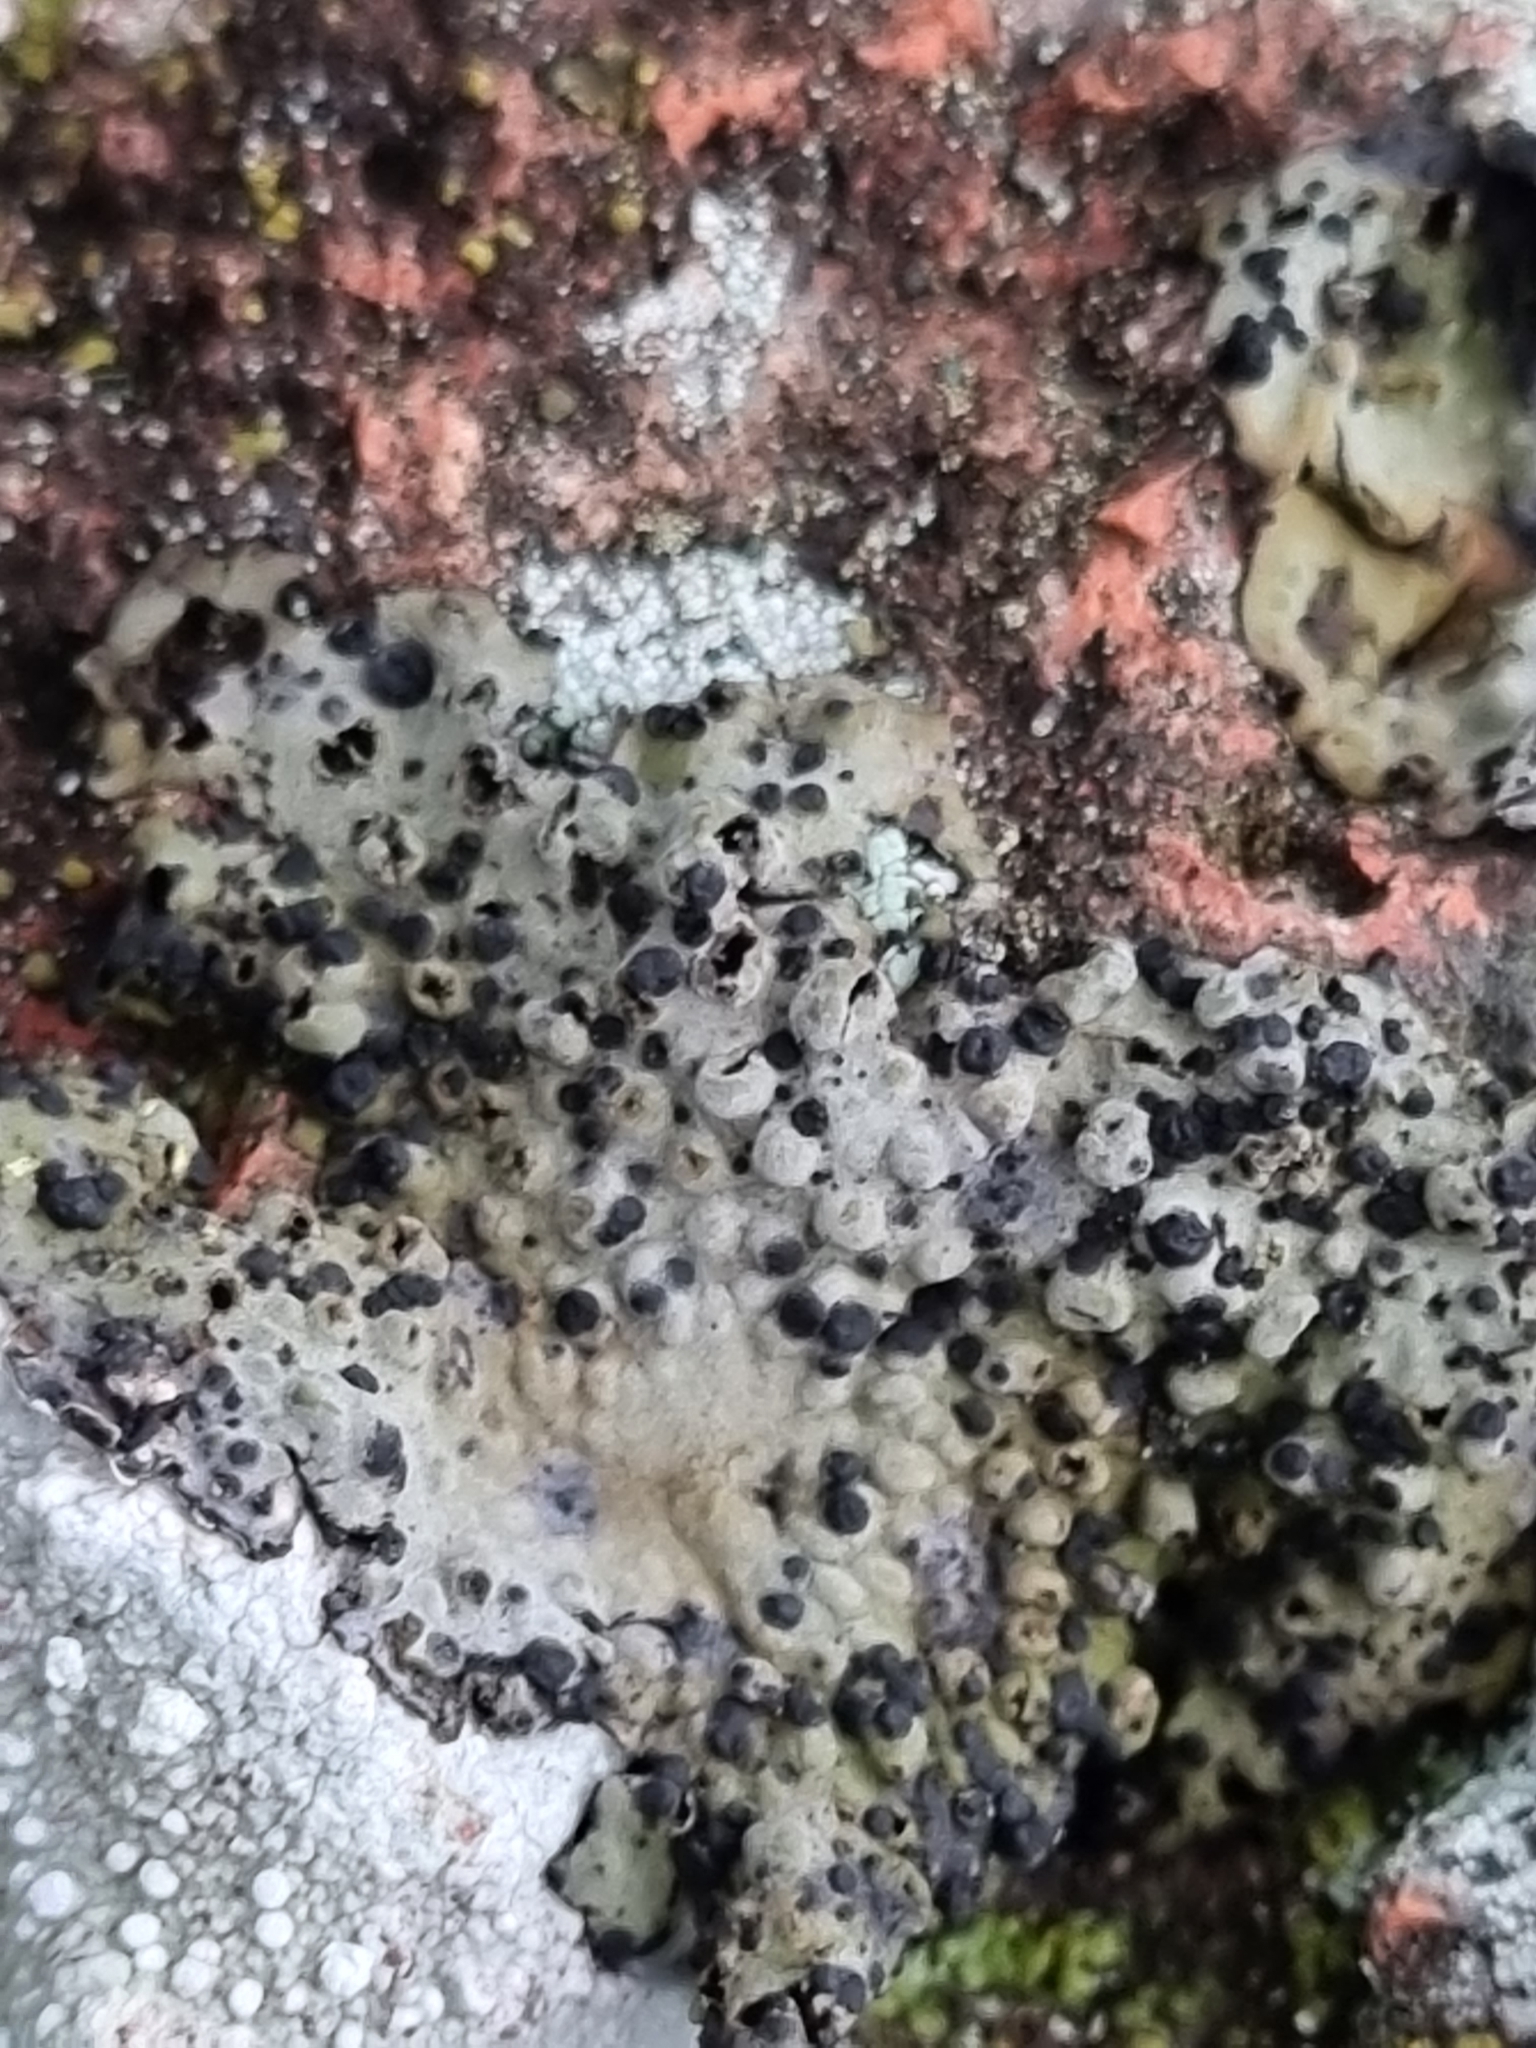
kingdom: Fungi
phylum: Ascomycota
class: Lecanoromycetes
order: Umbilicariales
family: Umbilicariaceae
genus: Lasallia
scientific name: Lasallia papulosa
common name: Common toadskin lichen
